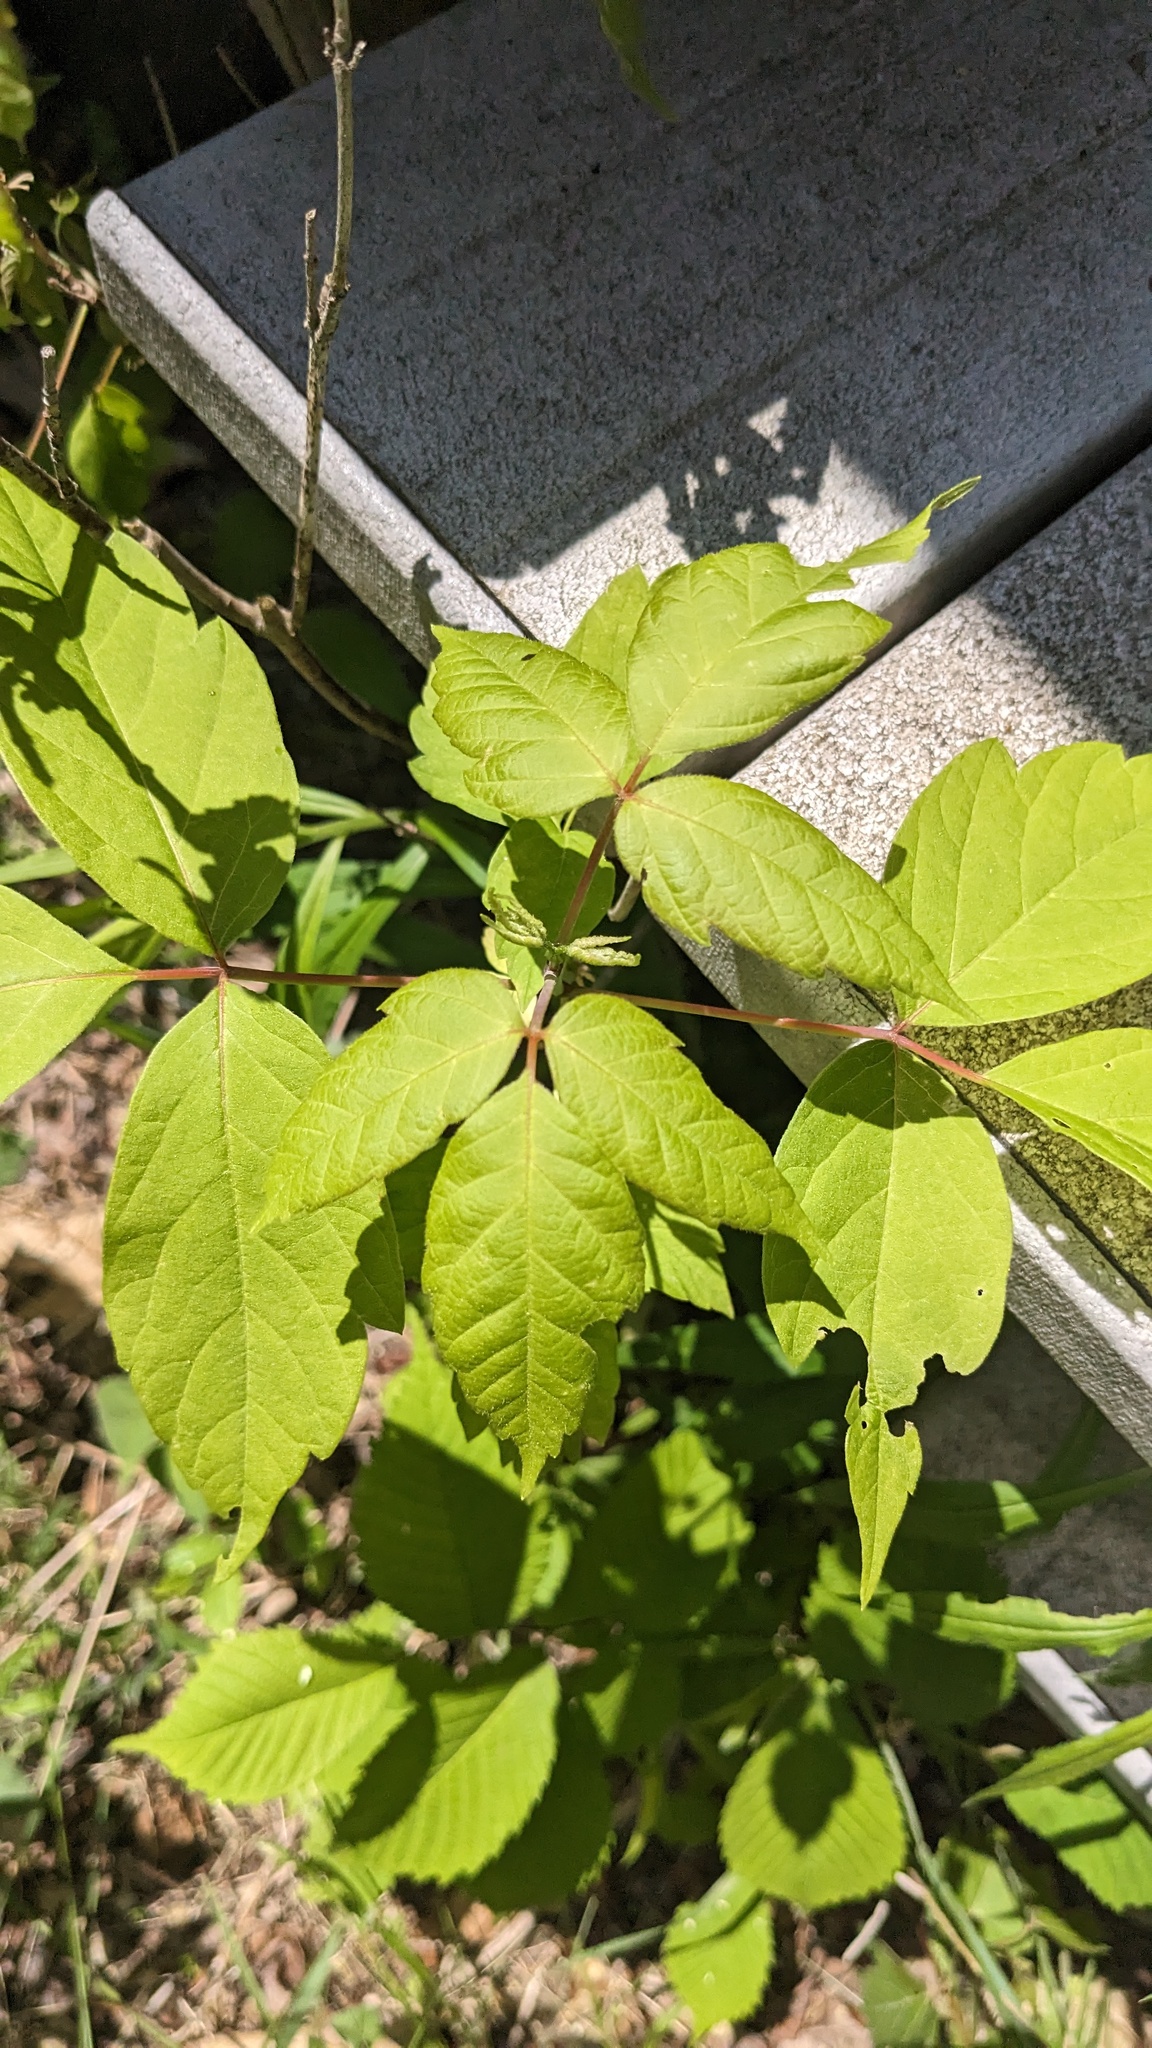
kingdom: Plantae
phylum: Tracheophyta
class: Magnoliopsida
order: Sapindales
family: Sapindaceae
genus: Acer
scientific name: Acer negundo
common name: Ashleaf maple
